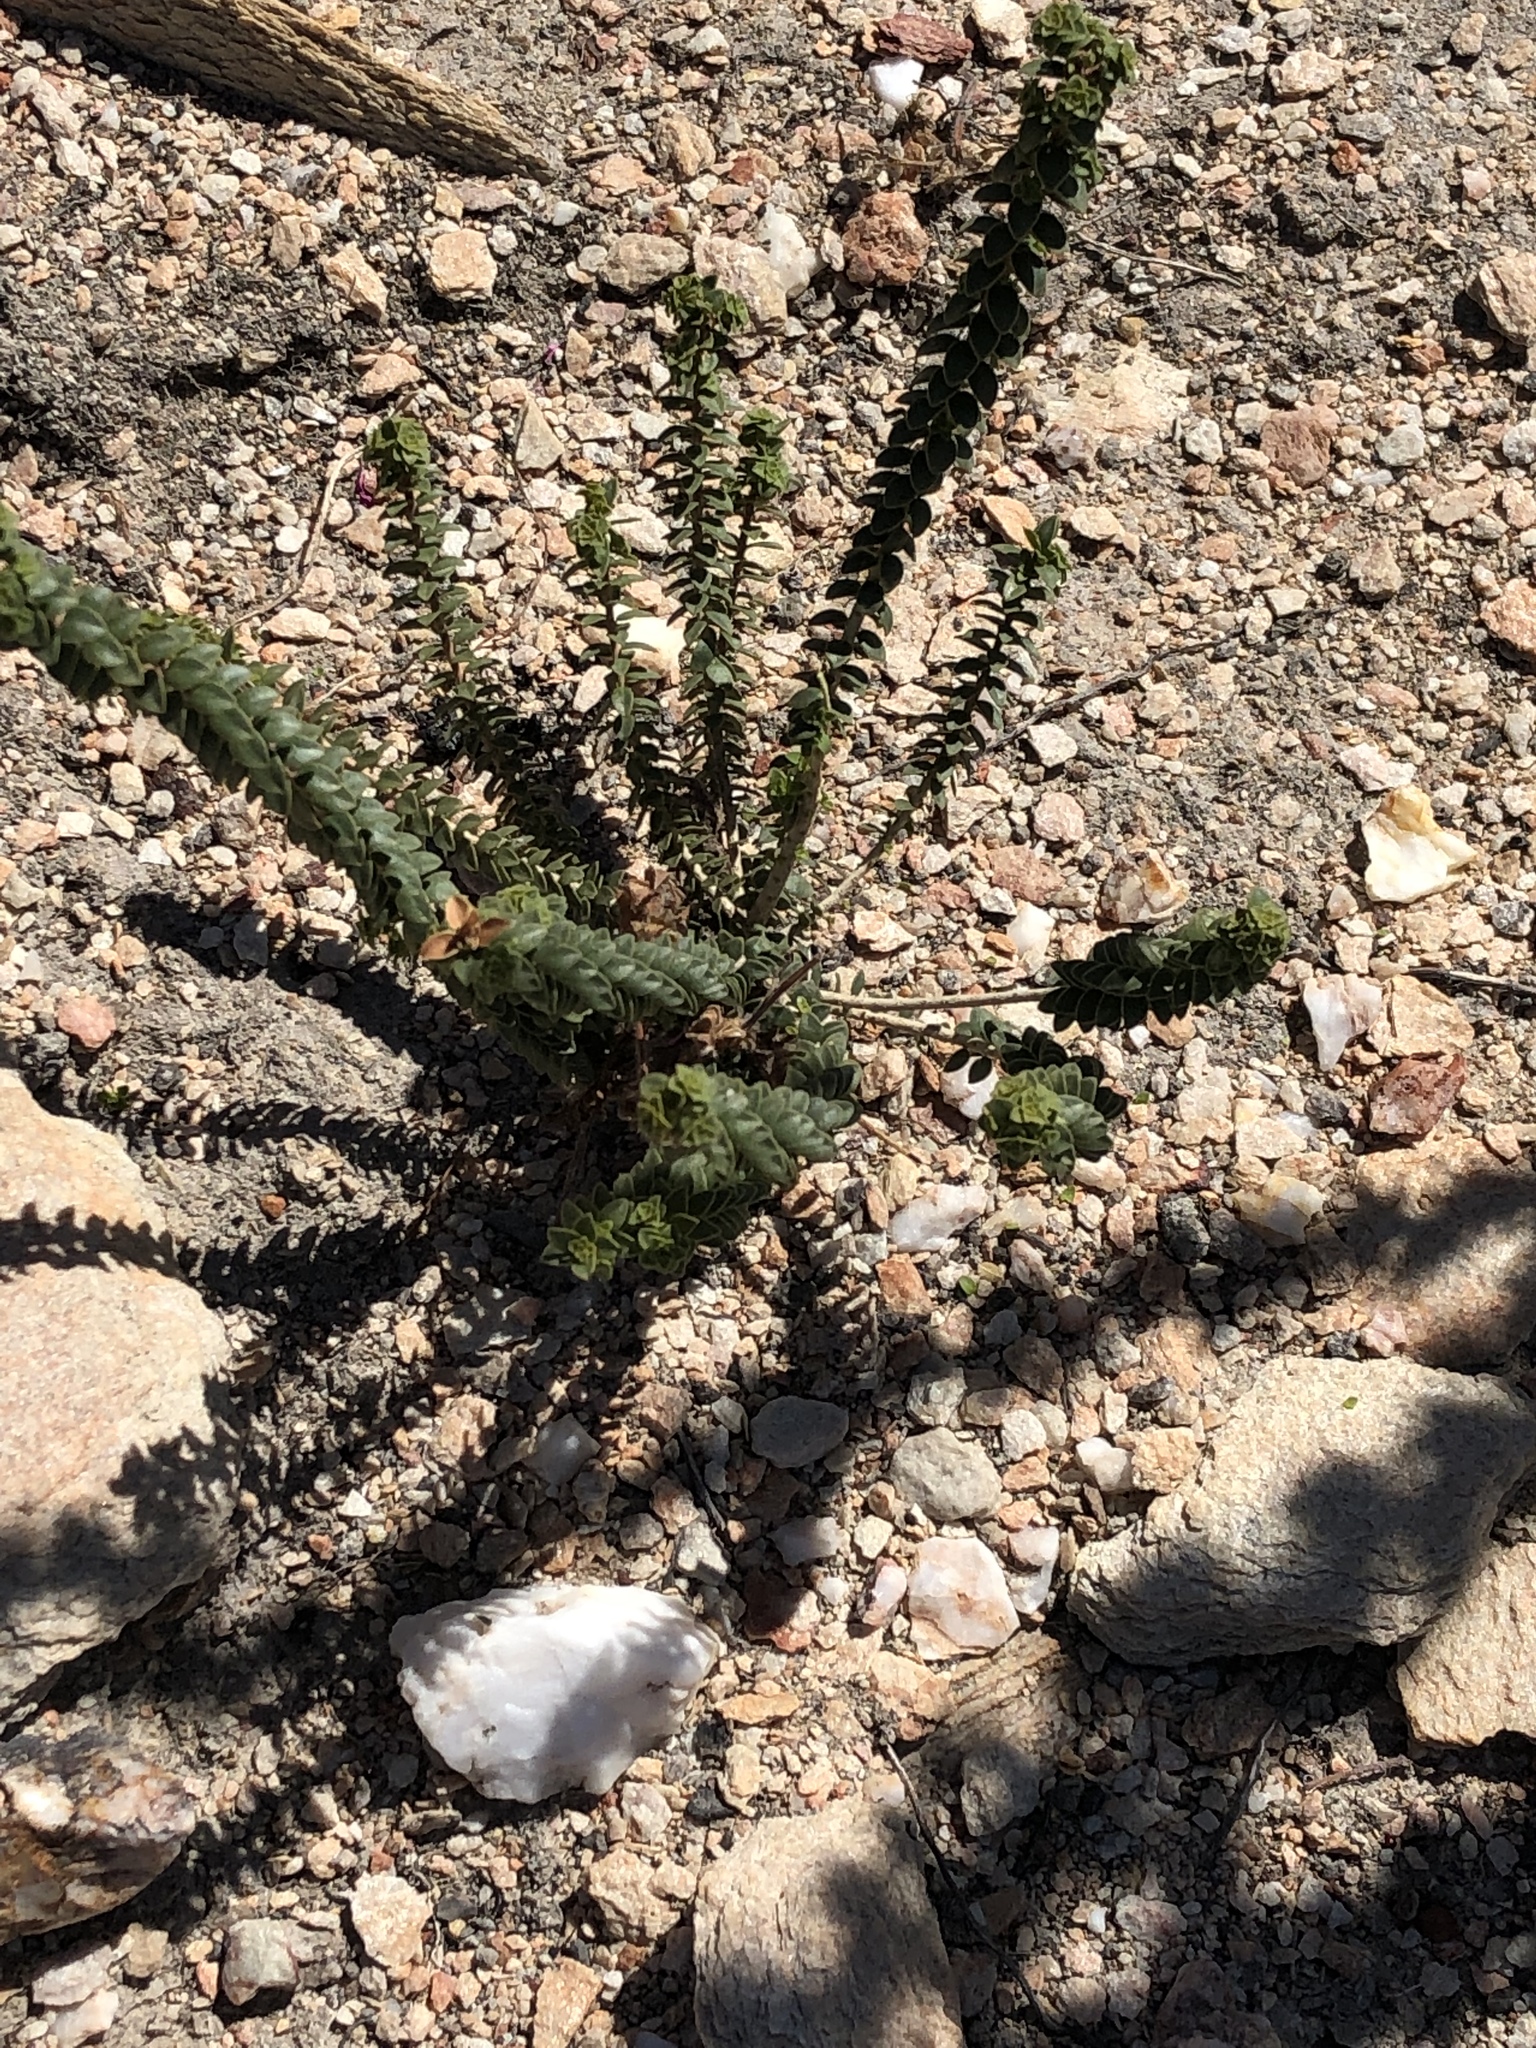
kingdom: Plantae
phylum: Tracheophyta
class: Magnoliopsida
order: Sapindales
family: Rutaceae
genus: Agathosma
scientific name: Agathosma recurvifolia
